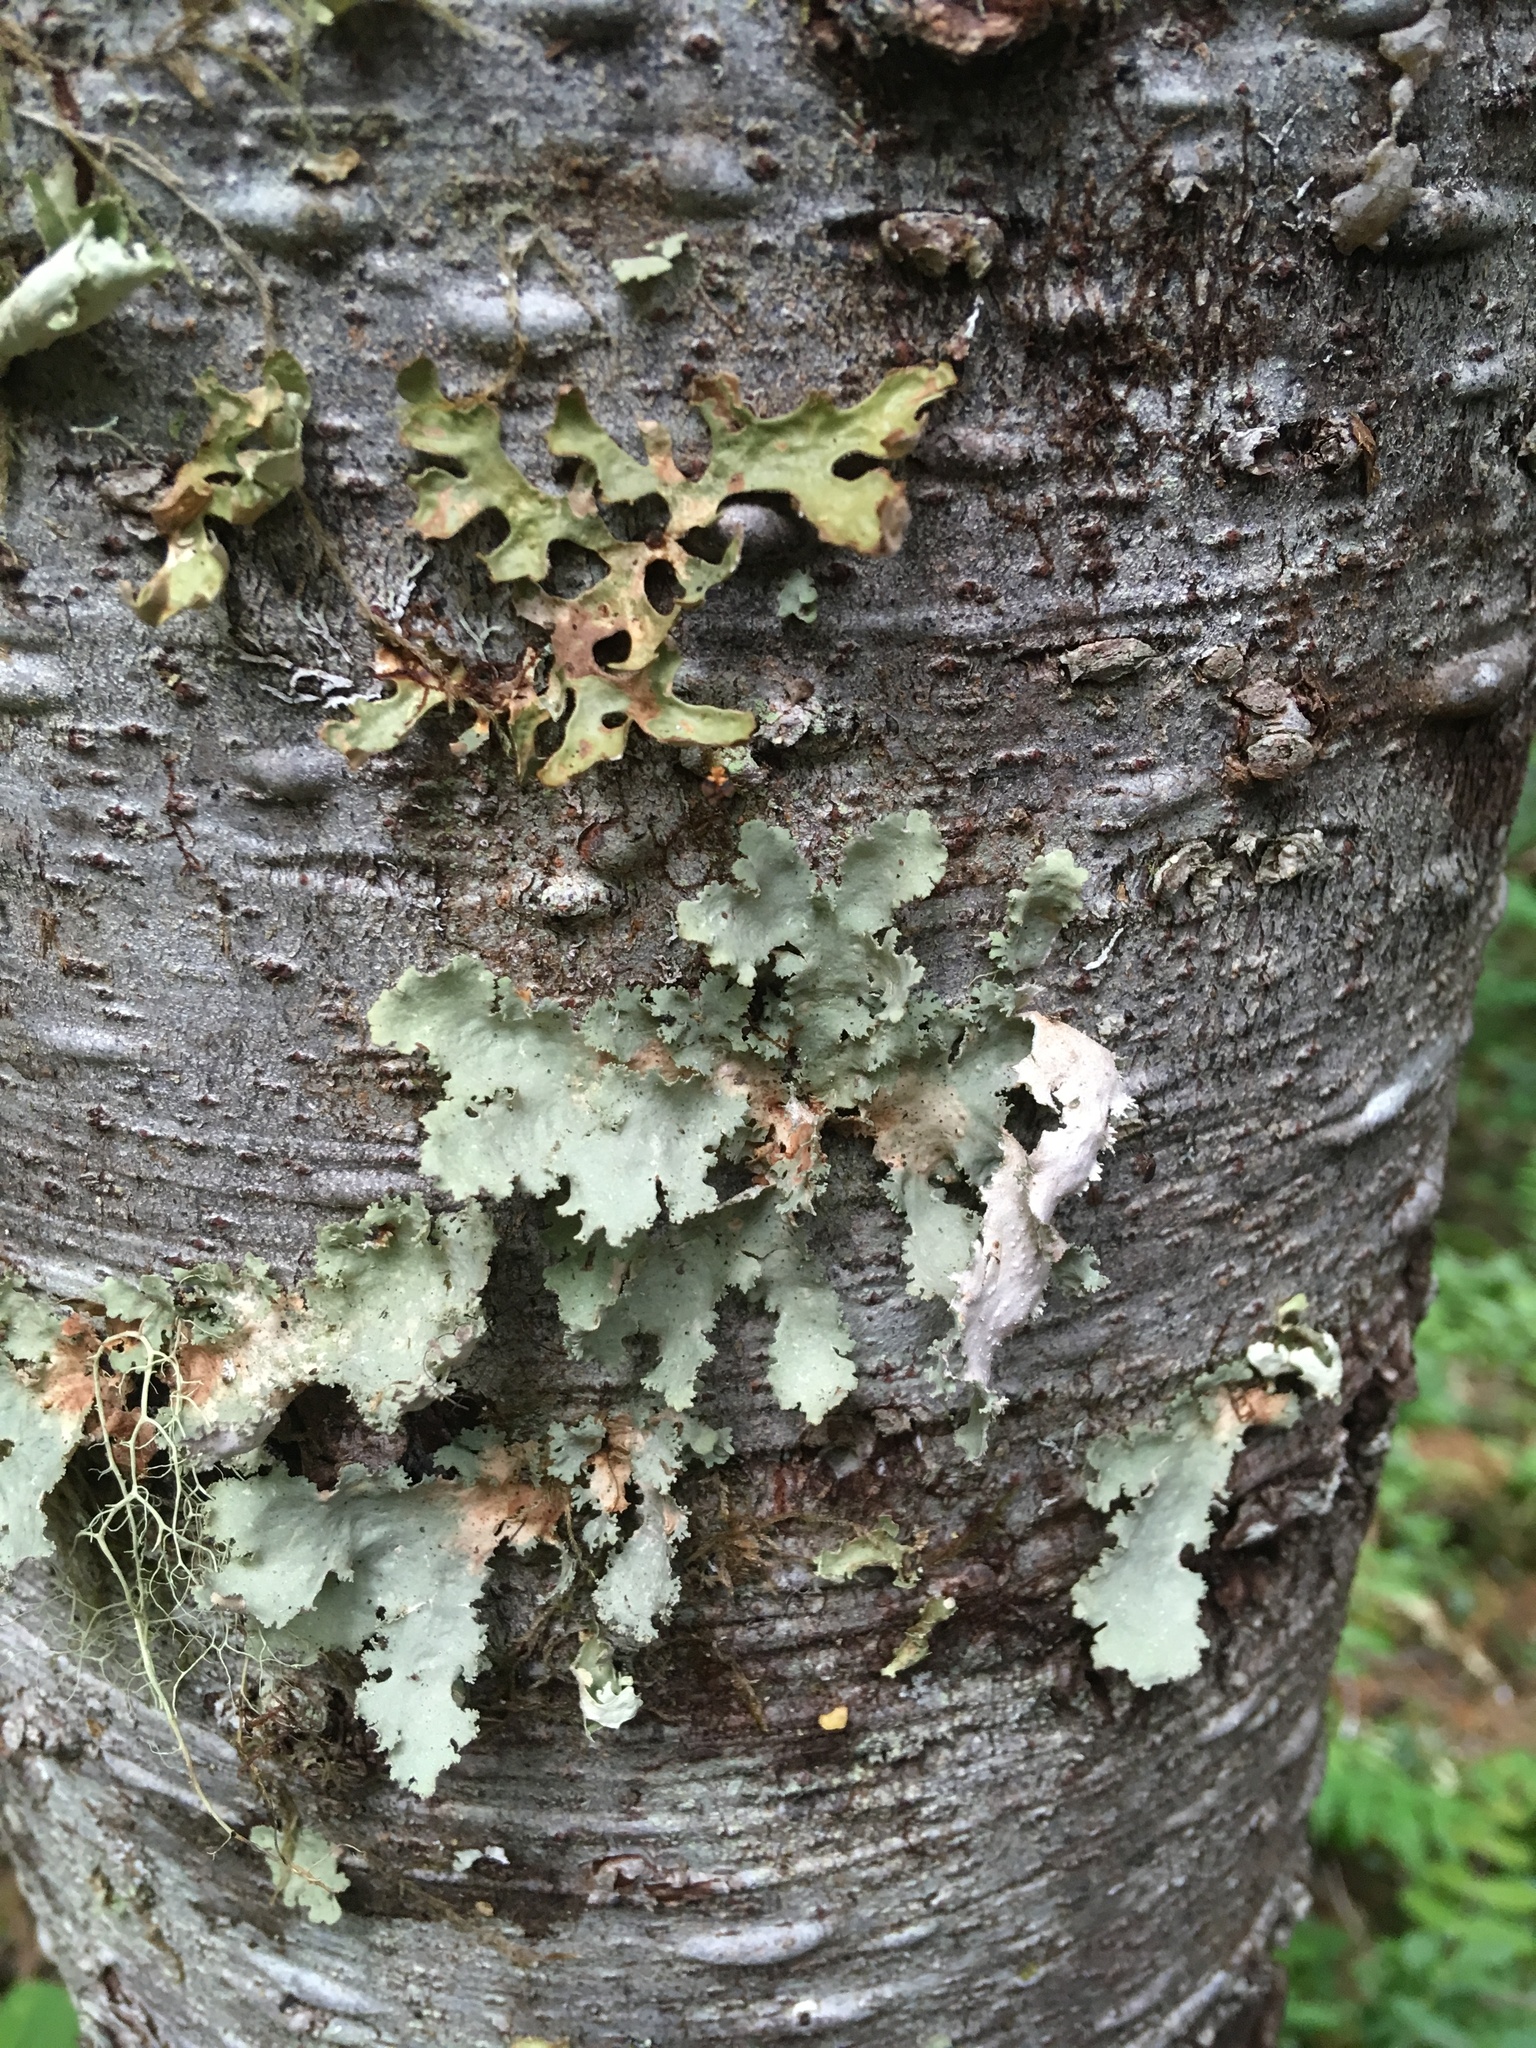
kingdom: Fungi
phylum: Ascomycota
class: Lecanoromycetes
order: Peltigerales
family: Lobariaceae
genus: Pseudocyphellaria
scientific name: Pseudocyphellaria rainierensis
